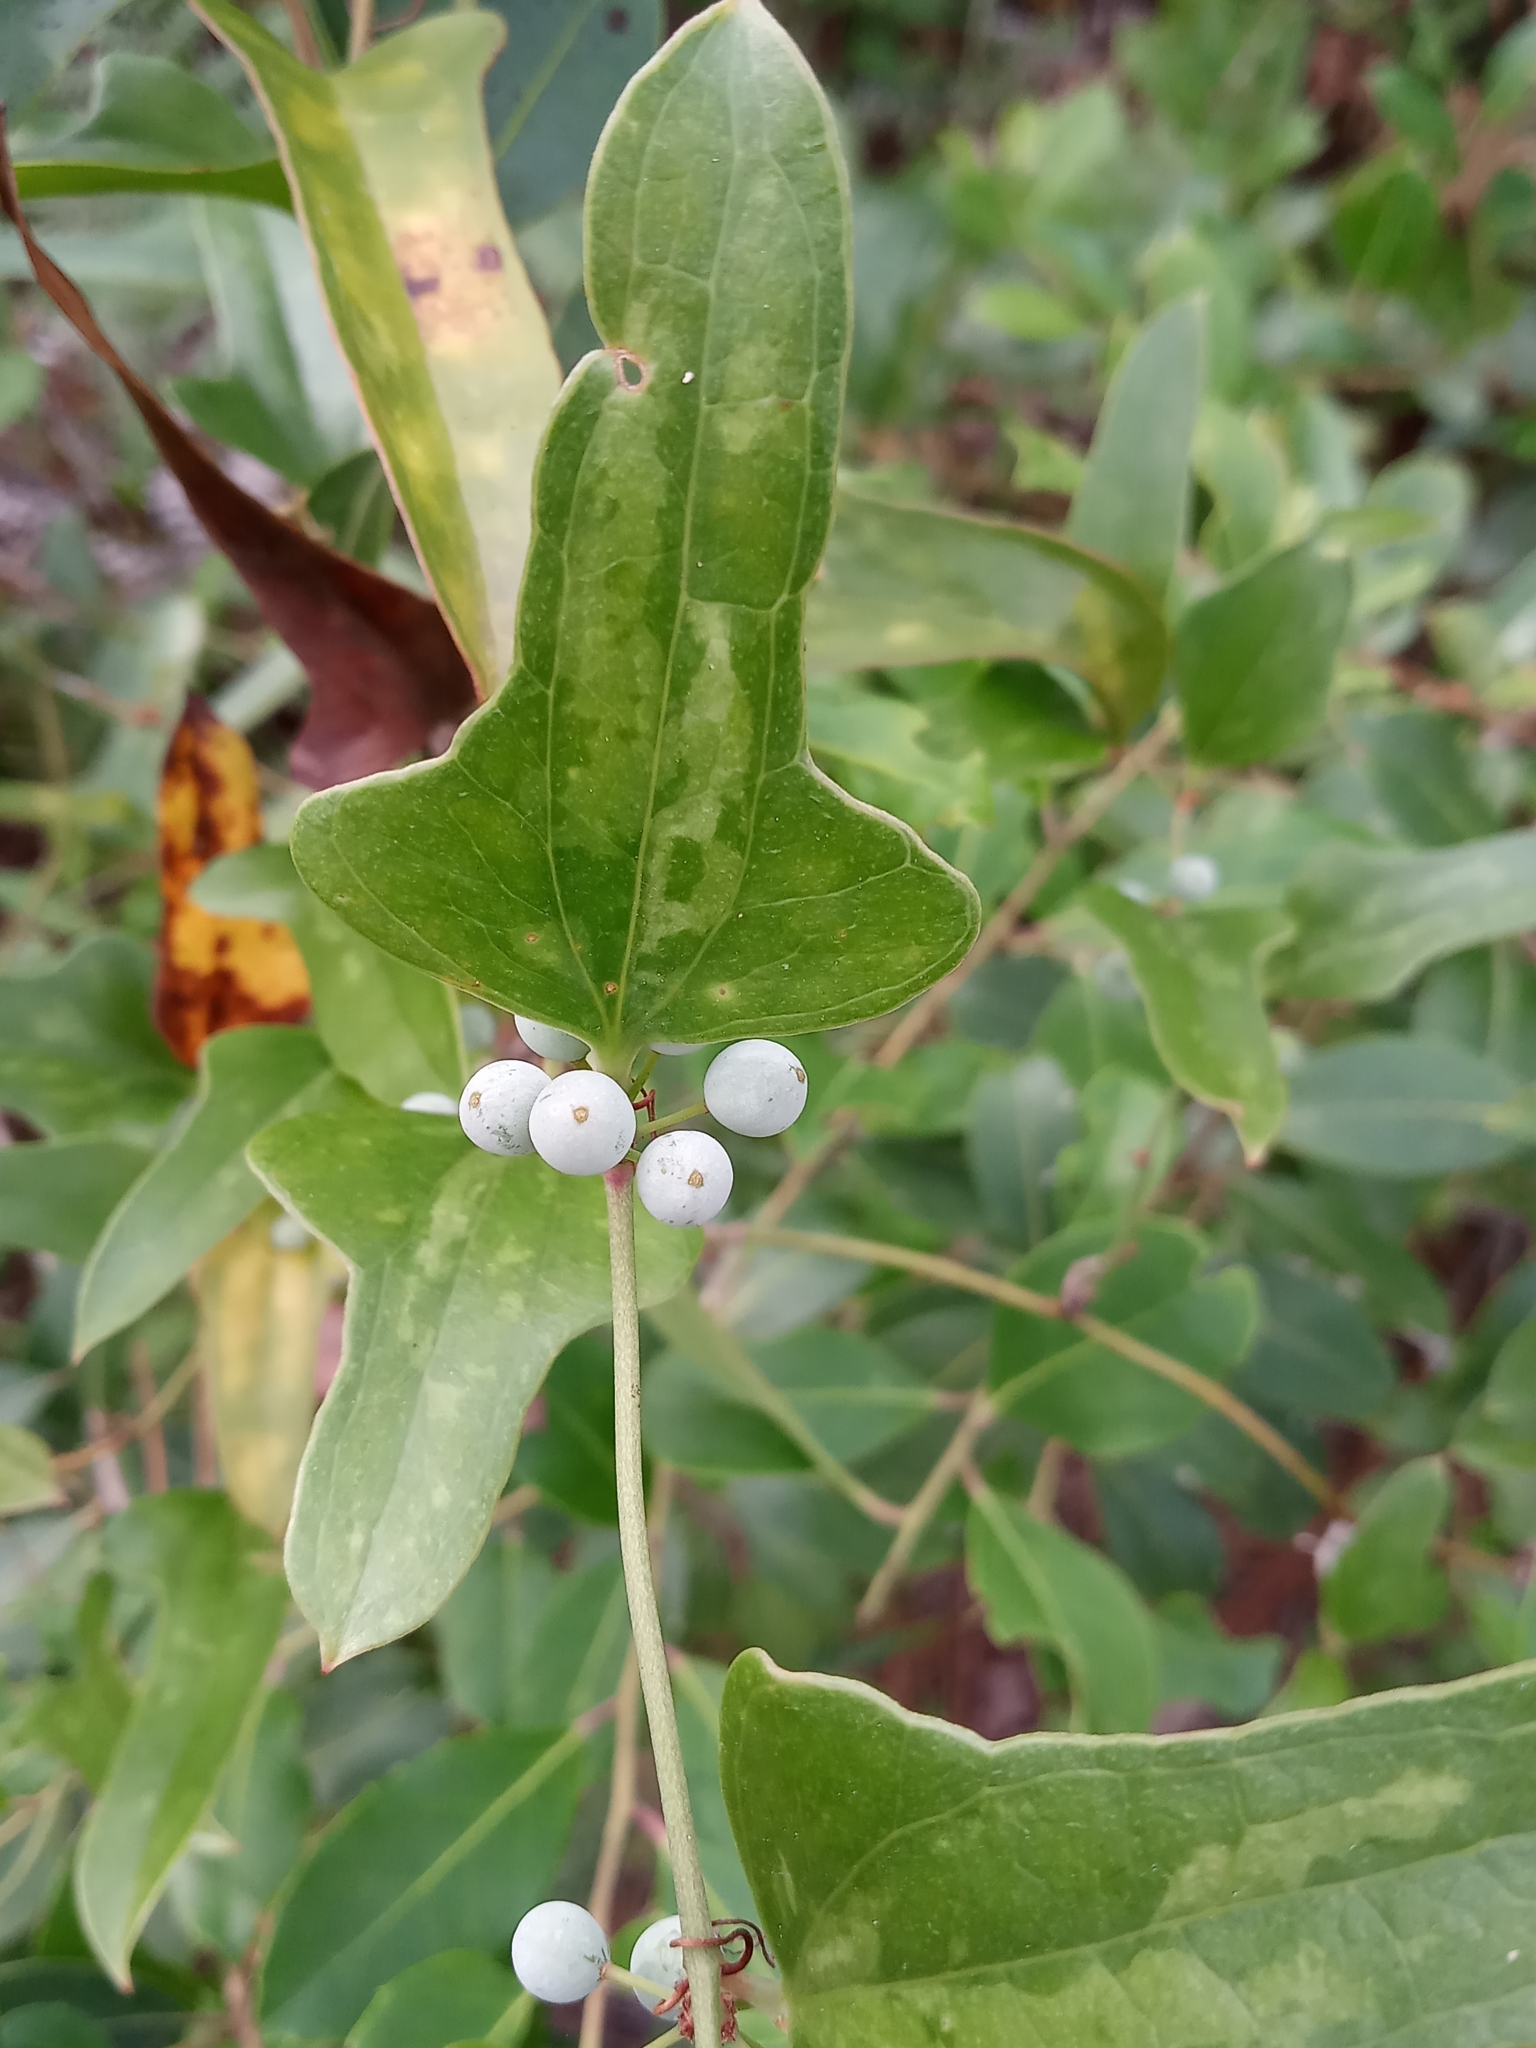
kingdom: Plantae
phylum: Tracheophyta
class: Liliopsida
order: Liliales
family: Smilacaceae
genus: Smilax
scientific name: Smilax auriculata
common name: Wild bamboo
